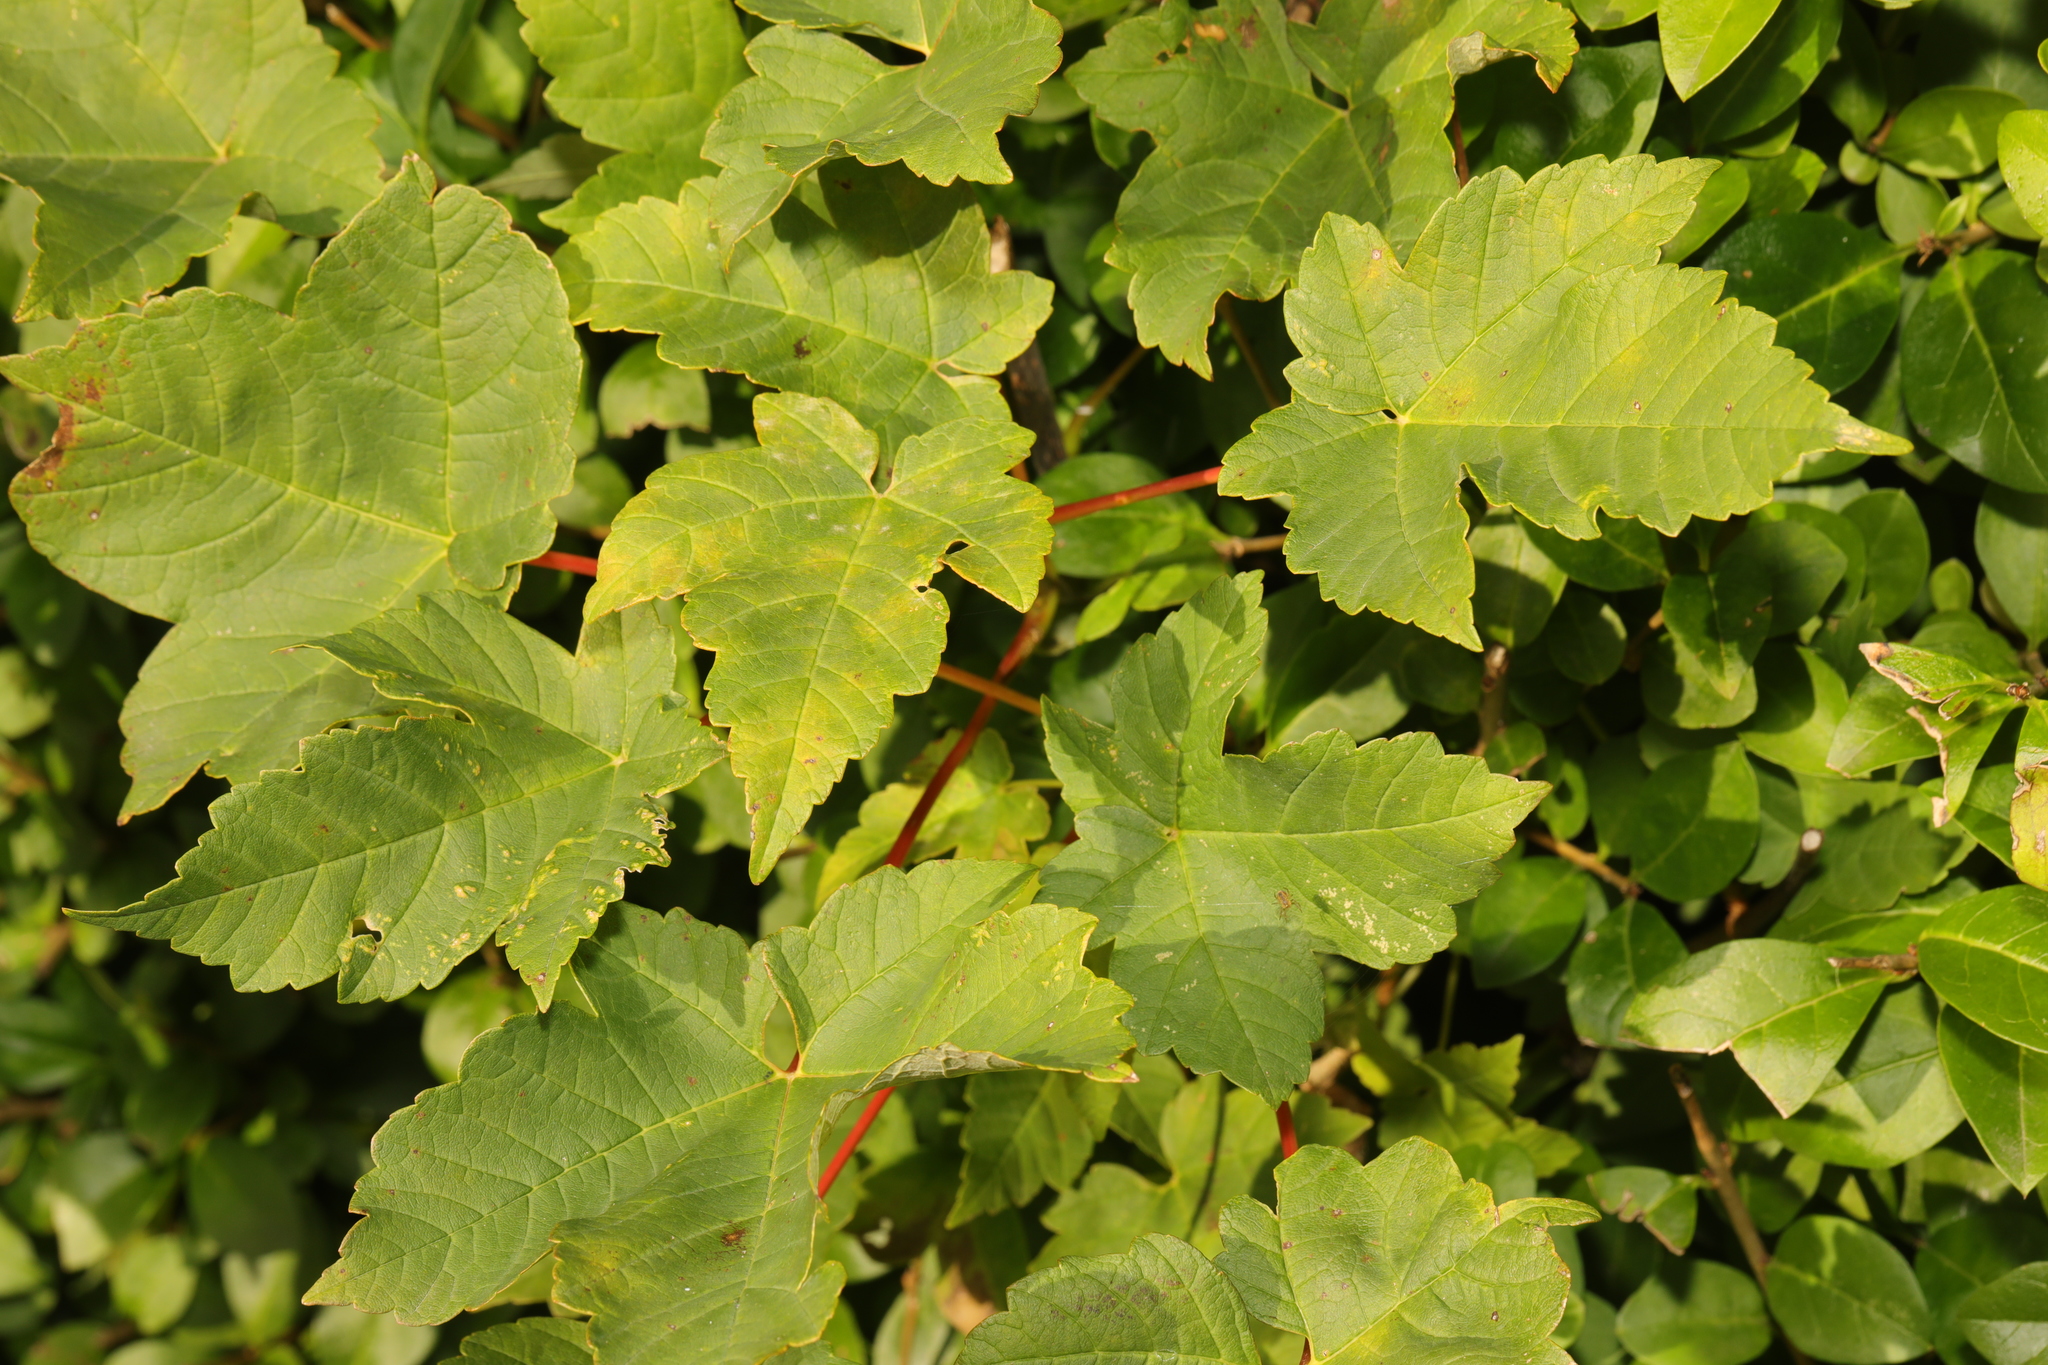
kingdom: Plantae
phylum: Tracheophyta
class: Magnoliopsida
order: Sapindales
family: Sapindaceae
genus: Acer
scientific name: Acer pseudoplatanus
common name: Sycamore
